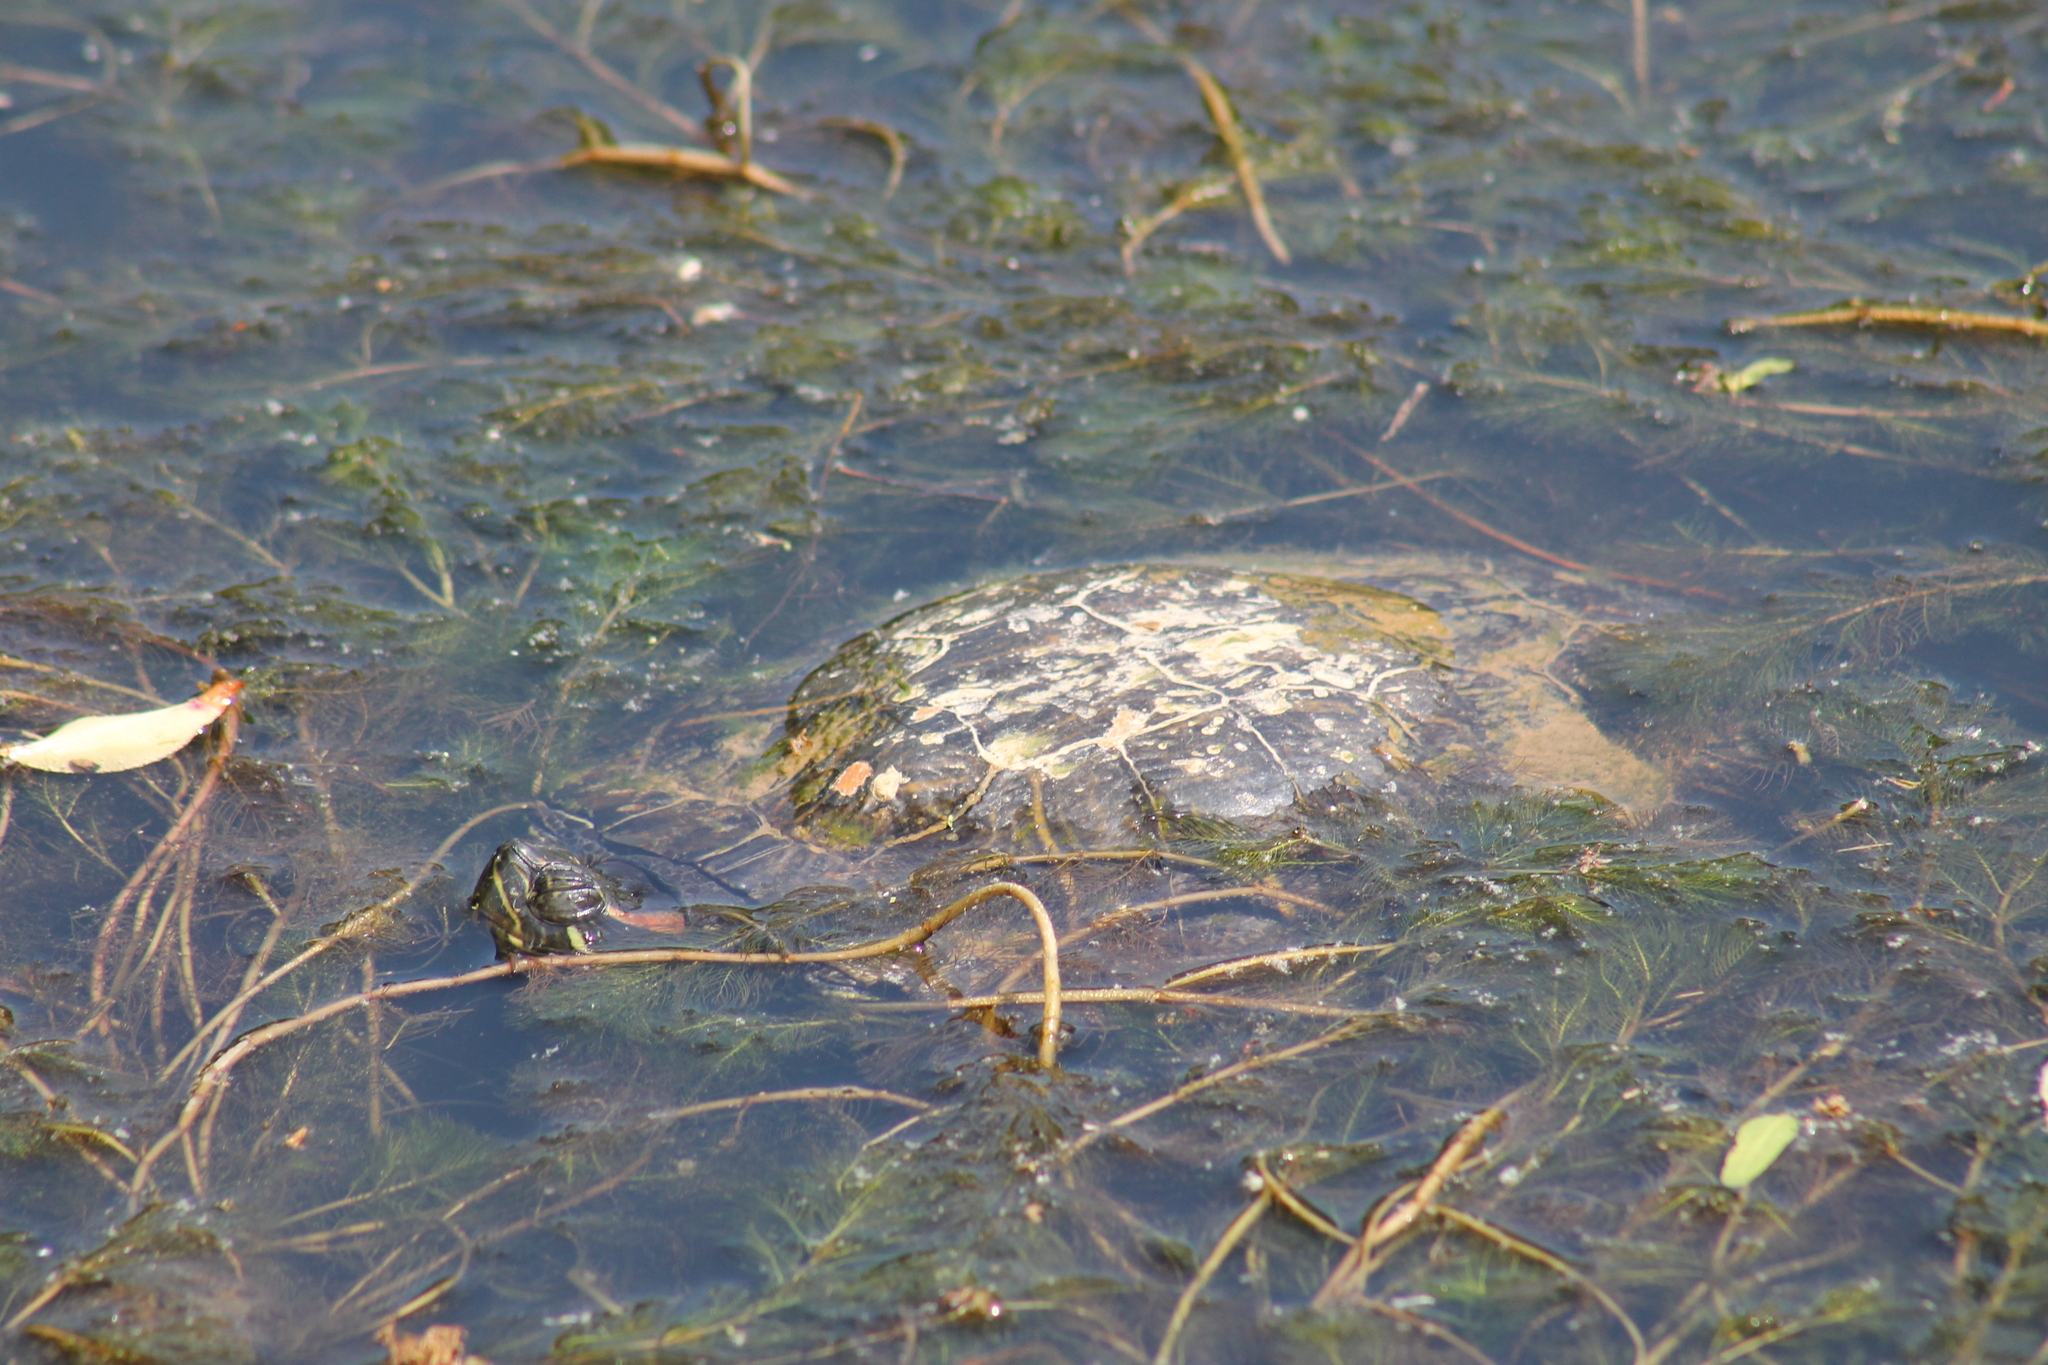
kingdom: Animalia
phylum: Chordata
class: Testudines
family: Emydidae
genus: Trachemys
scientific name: Trachemys scripta
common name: Slider
